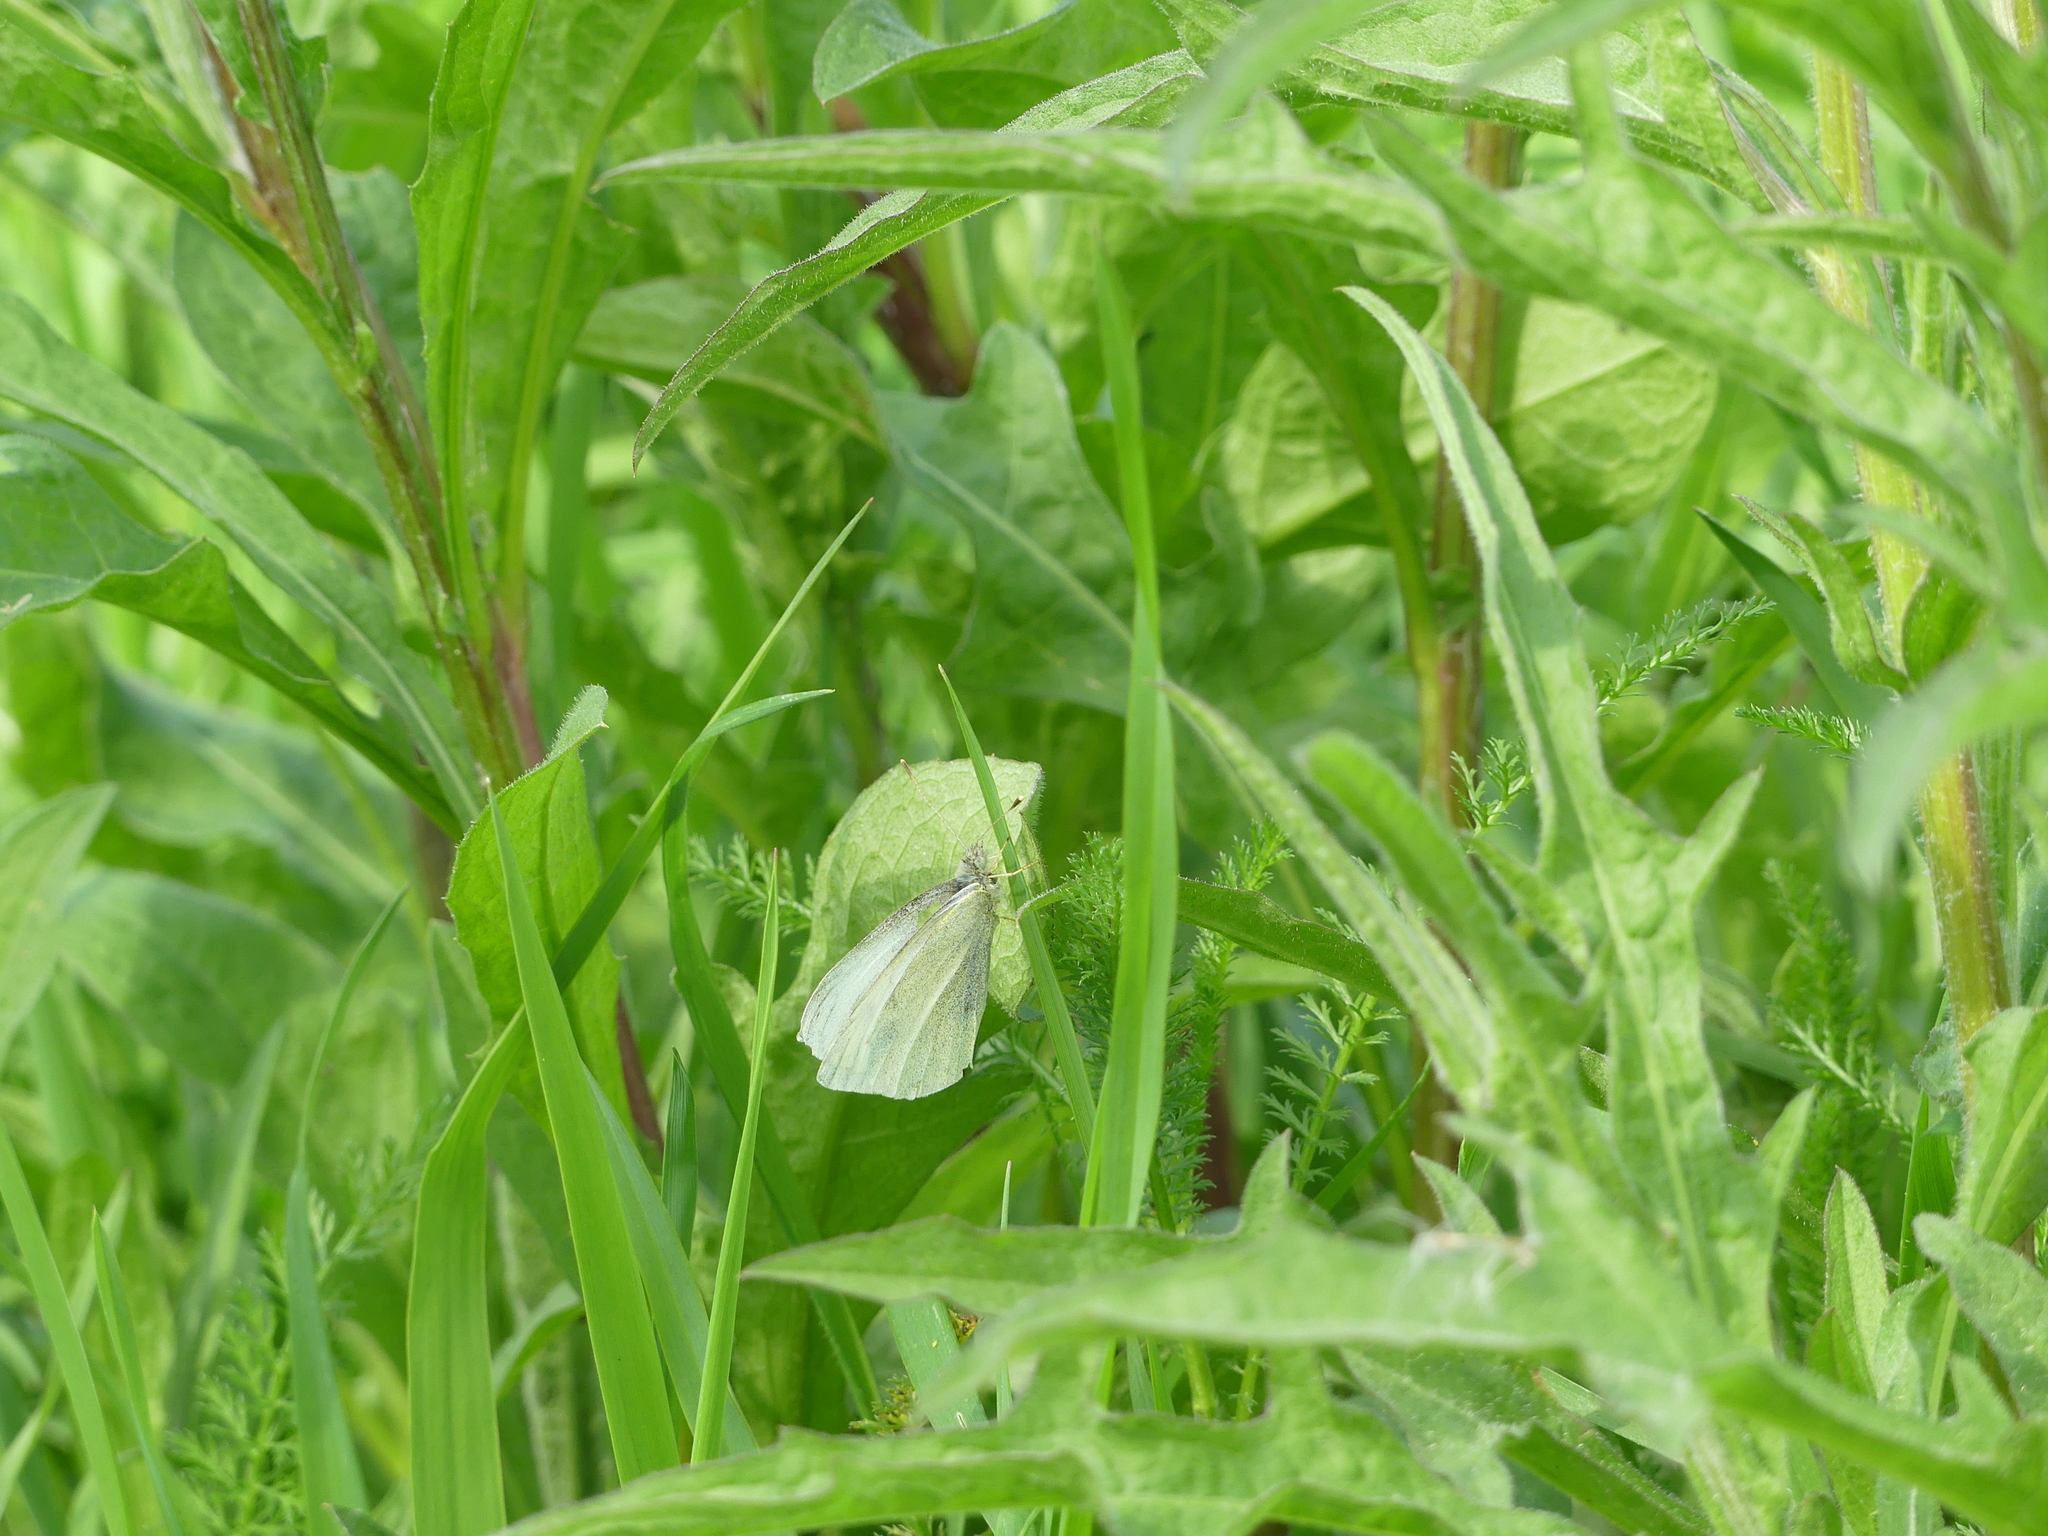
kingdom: Animalia
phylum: Arthropoda
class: Insecta
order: Lepidoptera
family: Pieridae
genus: Pieris
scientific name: Pieris rapae
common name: Small white
